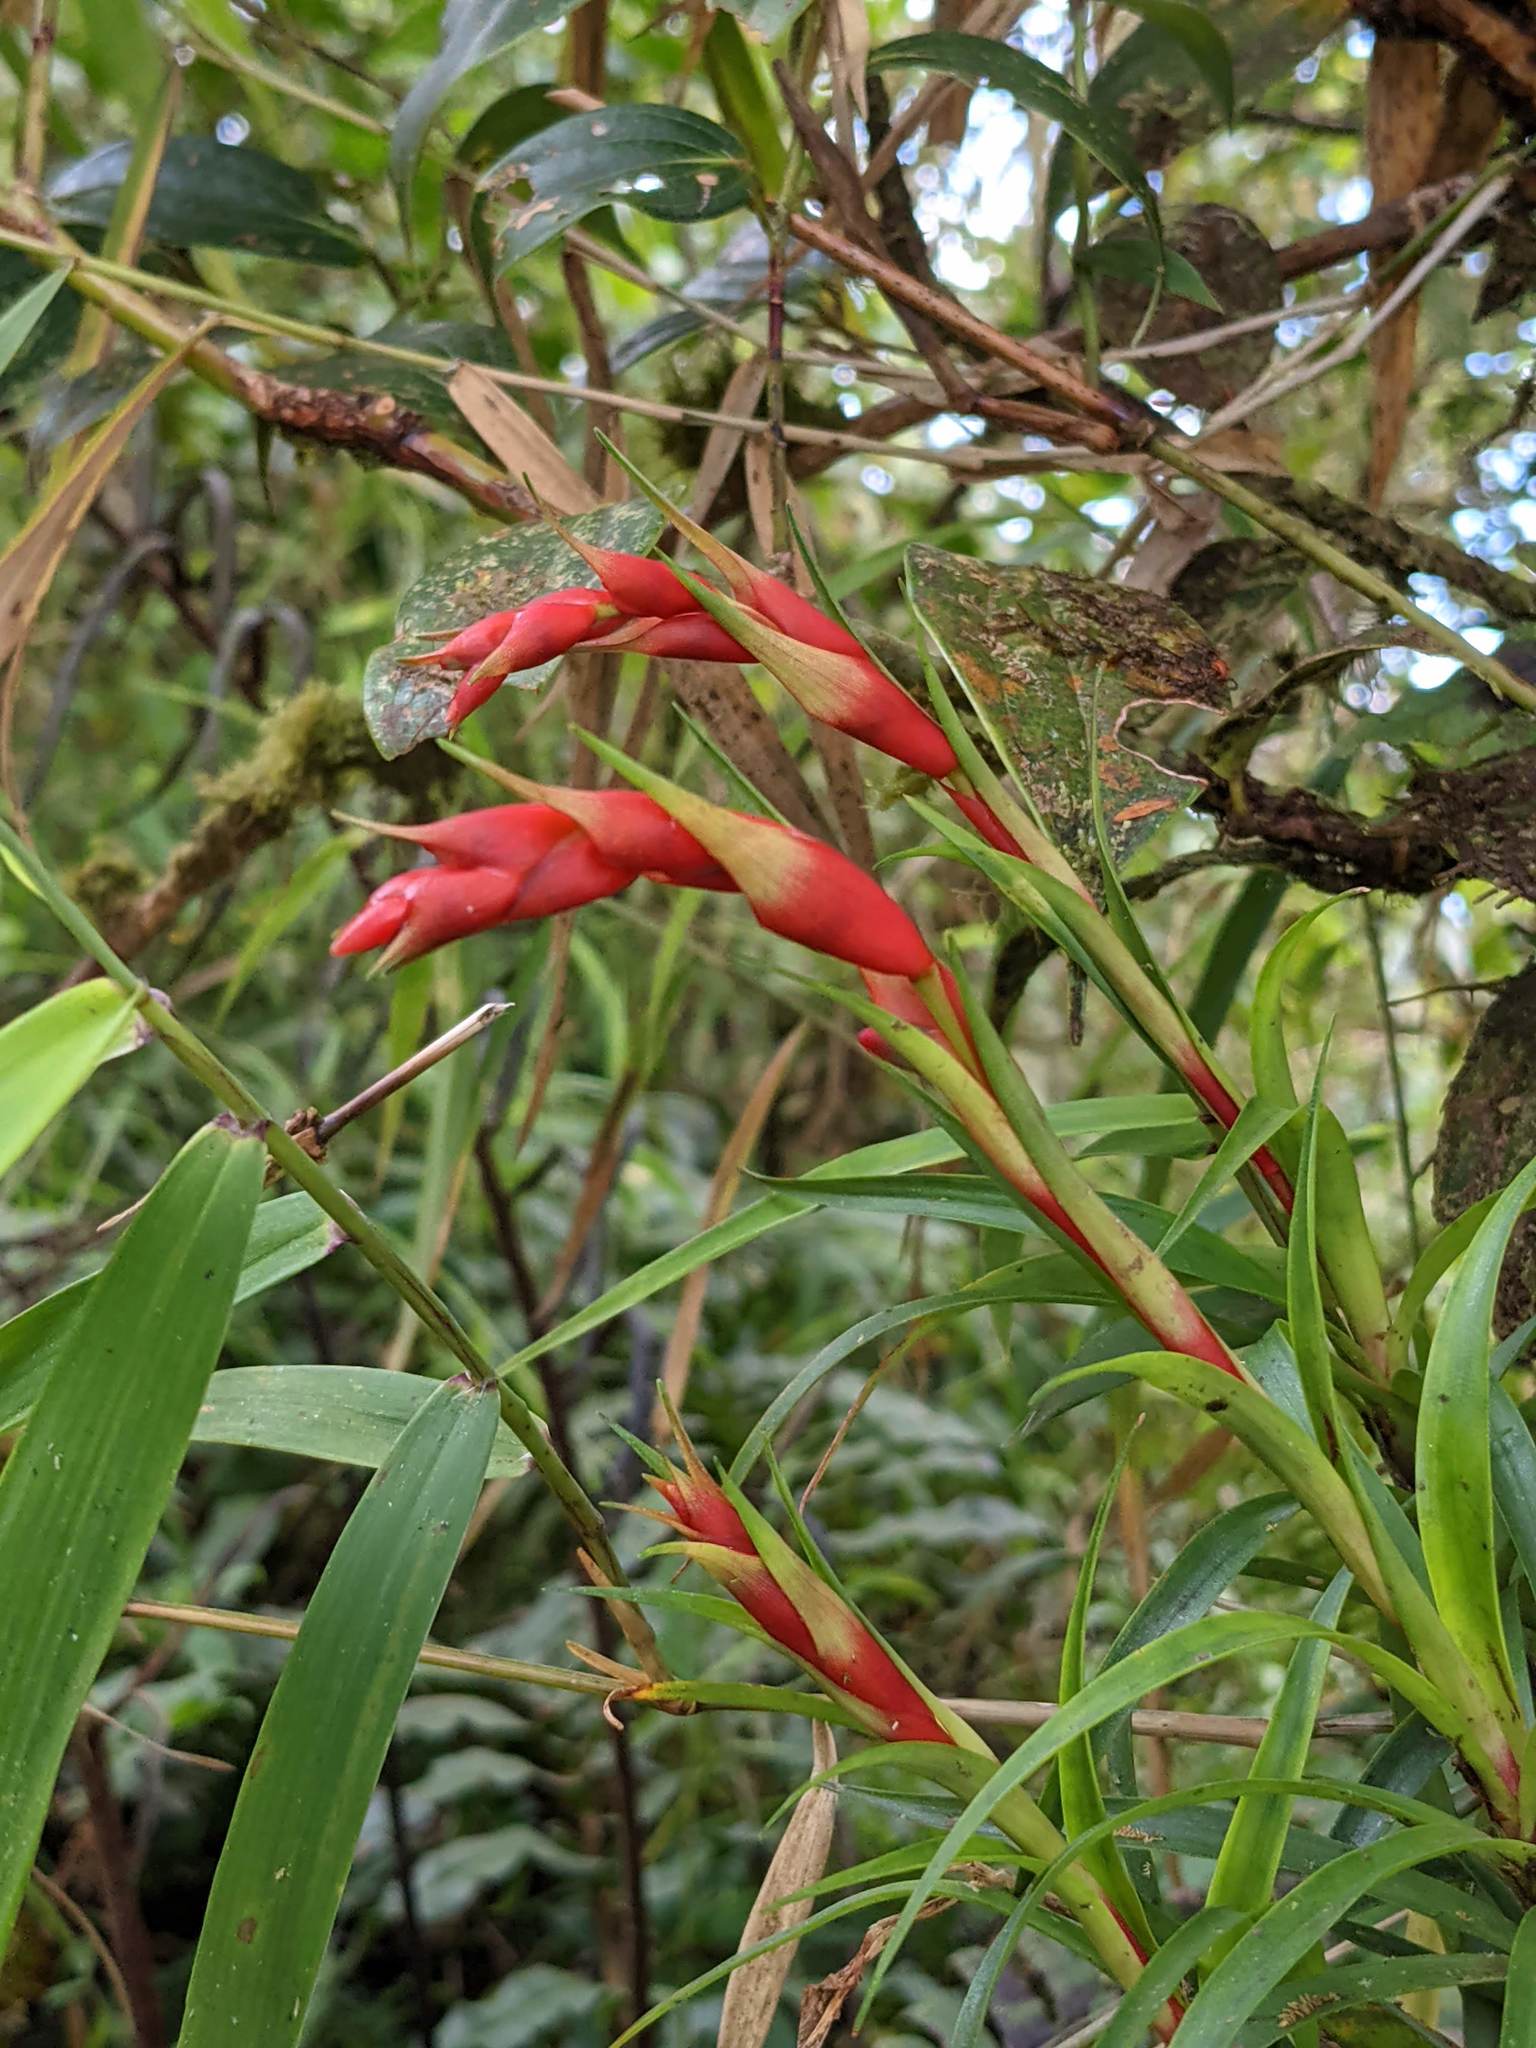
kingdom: Plantae
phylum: Tracheophyta
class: Liliopsida
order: Poales
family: Bromeliaceae
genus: Werauhia
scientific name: Werauhia insignis
